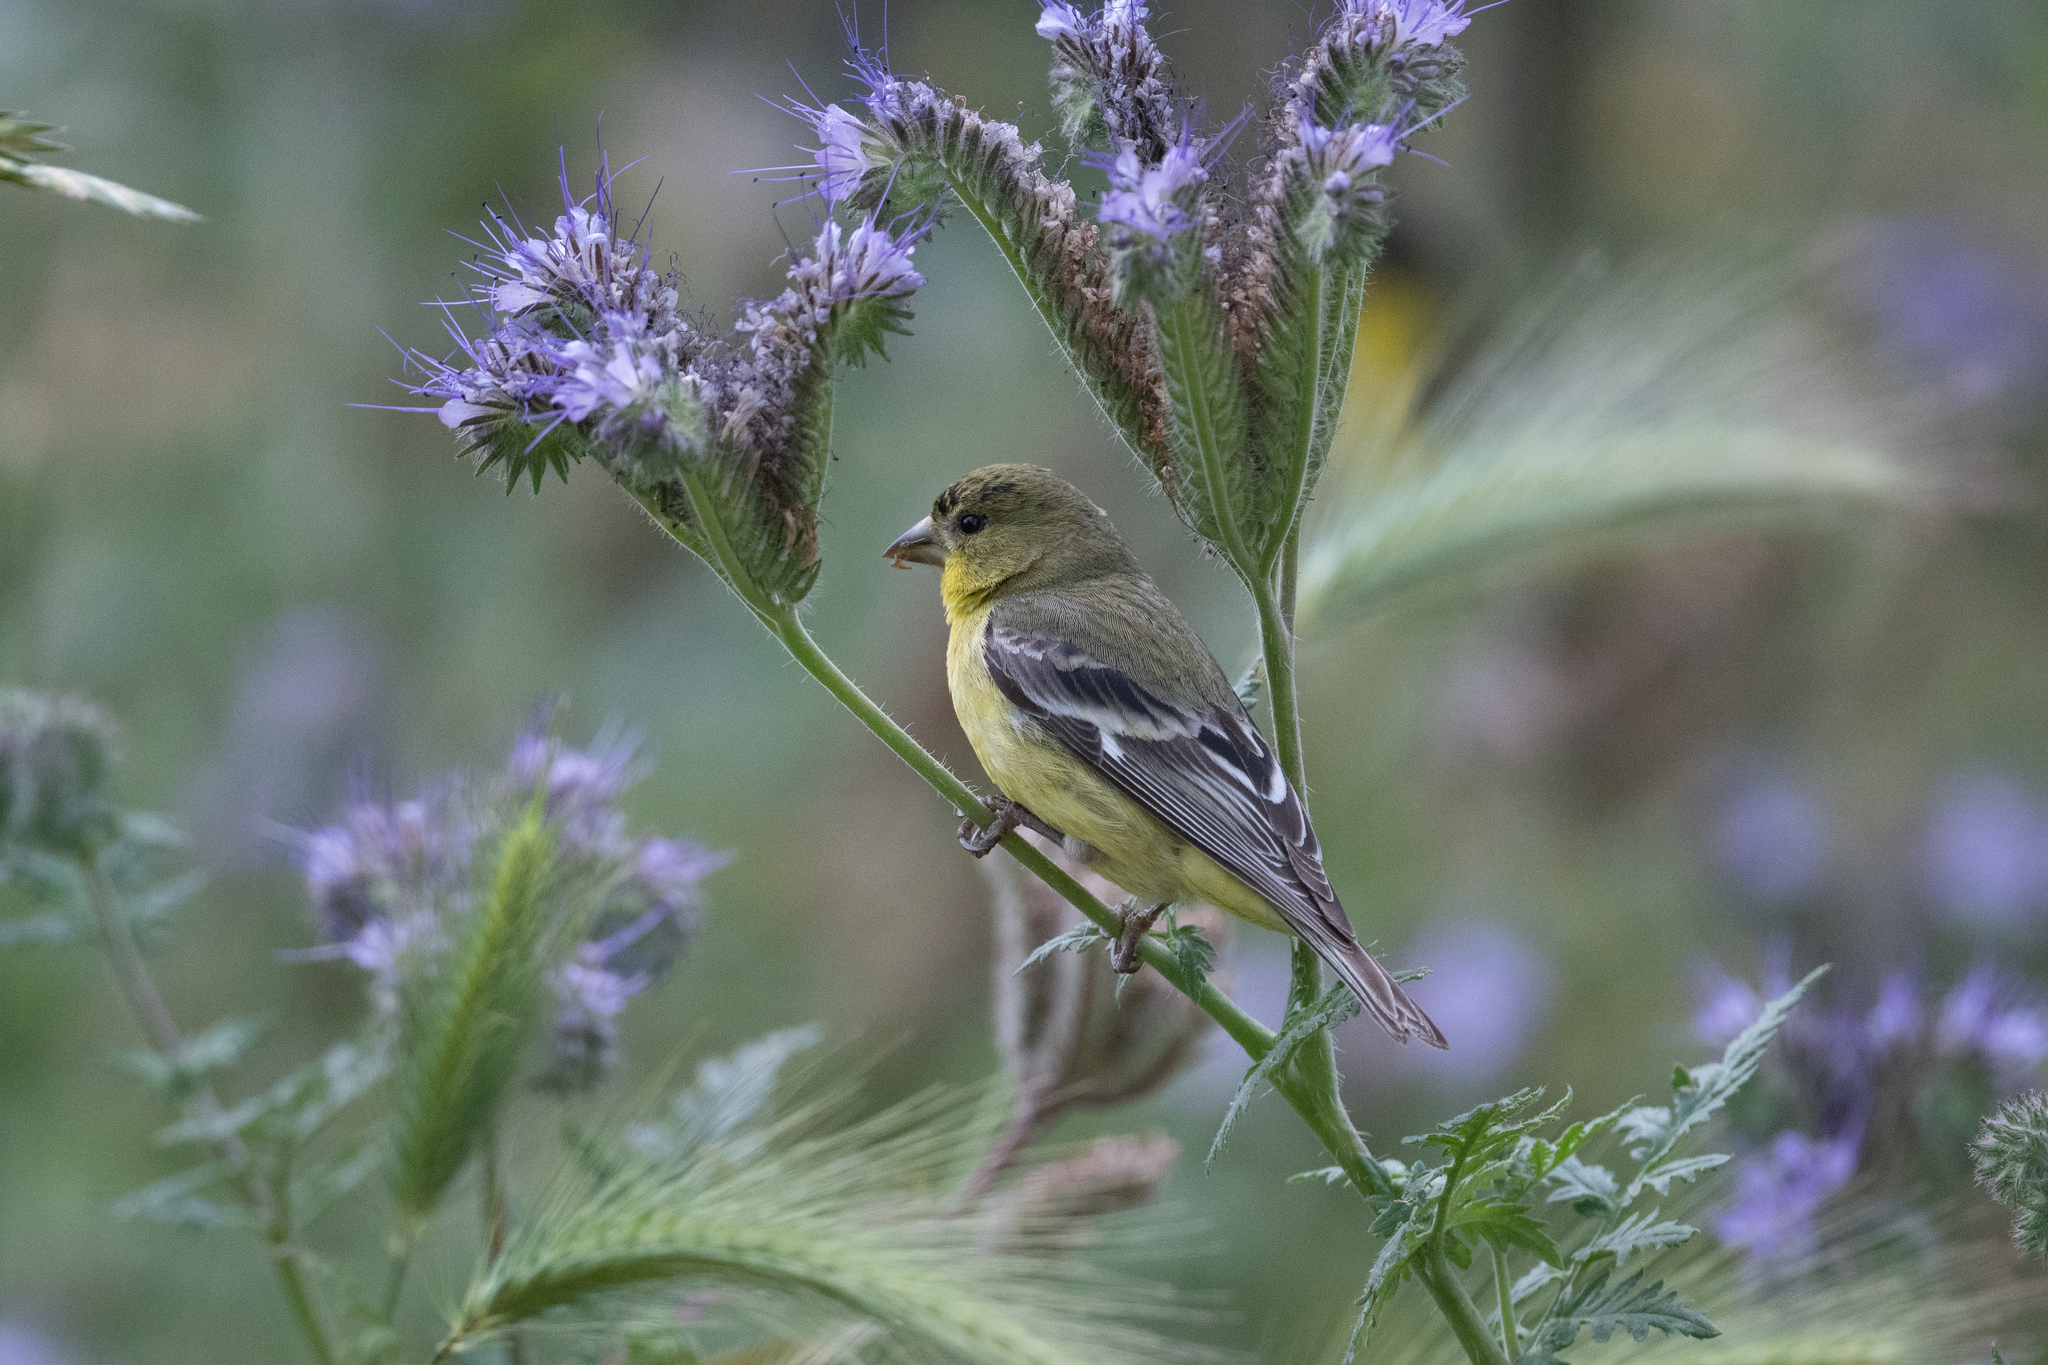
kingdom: Animalia
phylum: Chordata
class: Aves
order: Passeriformes
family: Fringillidae
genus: Spinus
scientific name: Spinus psaltria
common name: Lesser goldfinch
